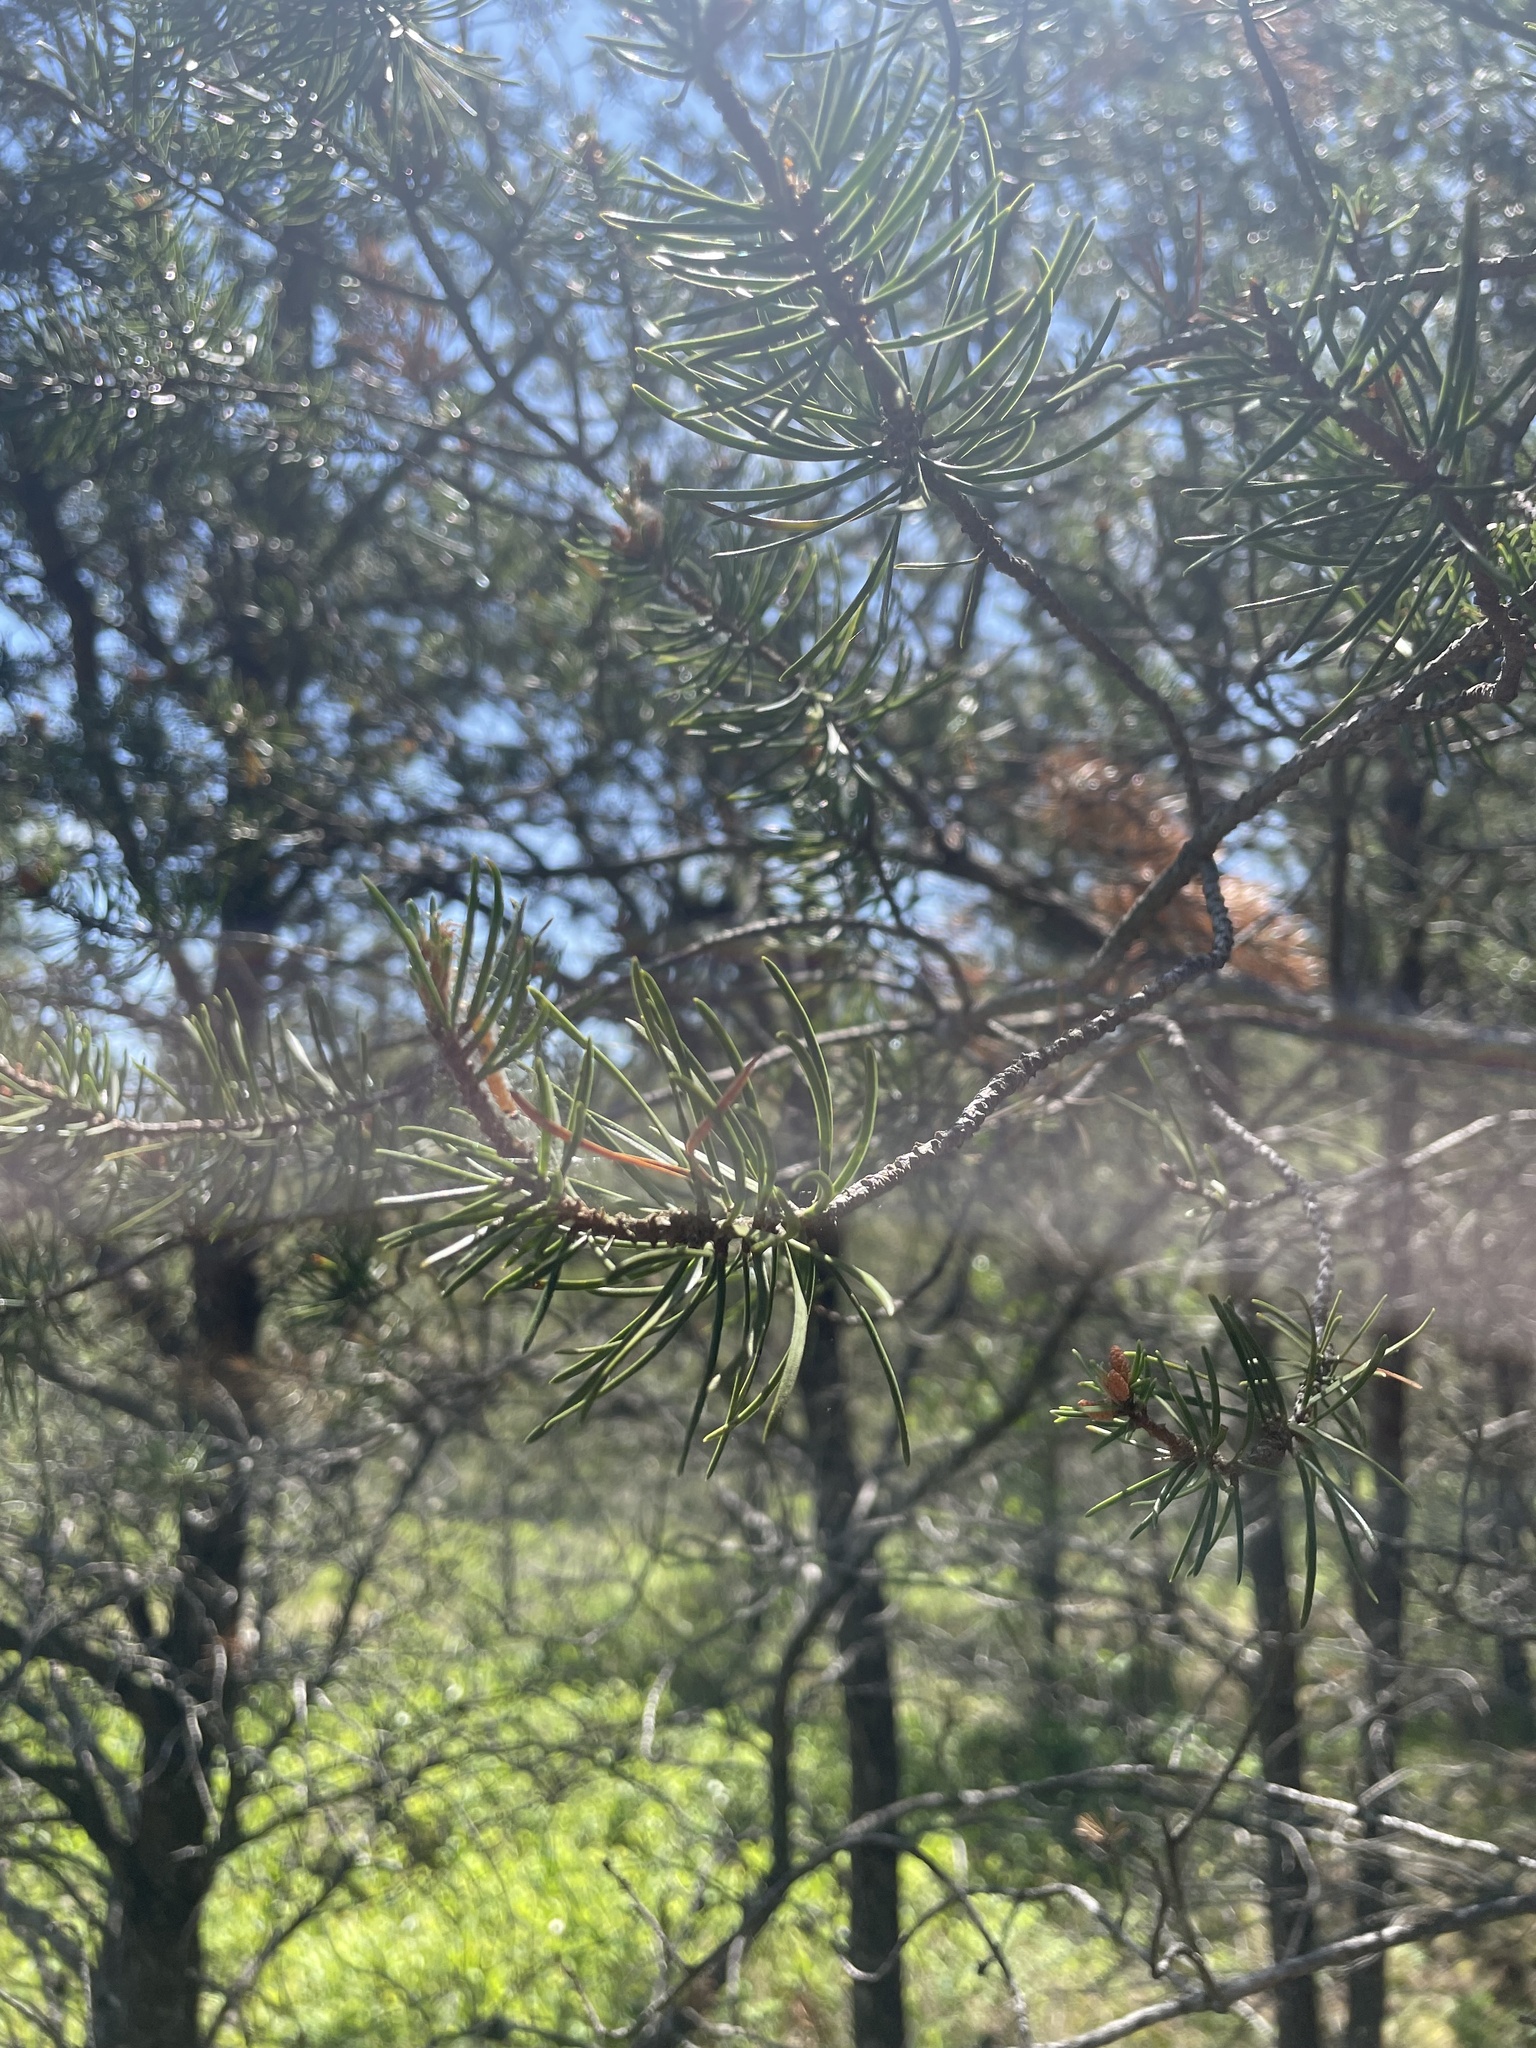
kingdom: Plantae
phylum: Tracheophyta
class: Pinopsida
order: Pinales
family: Pinaceae
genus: Pinus
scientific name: Pinus banksiana
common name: Jack pine
